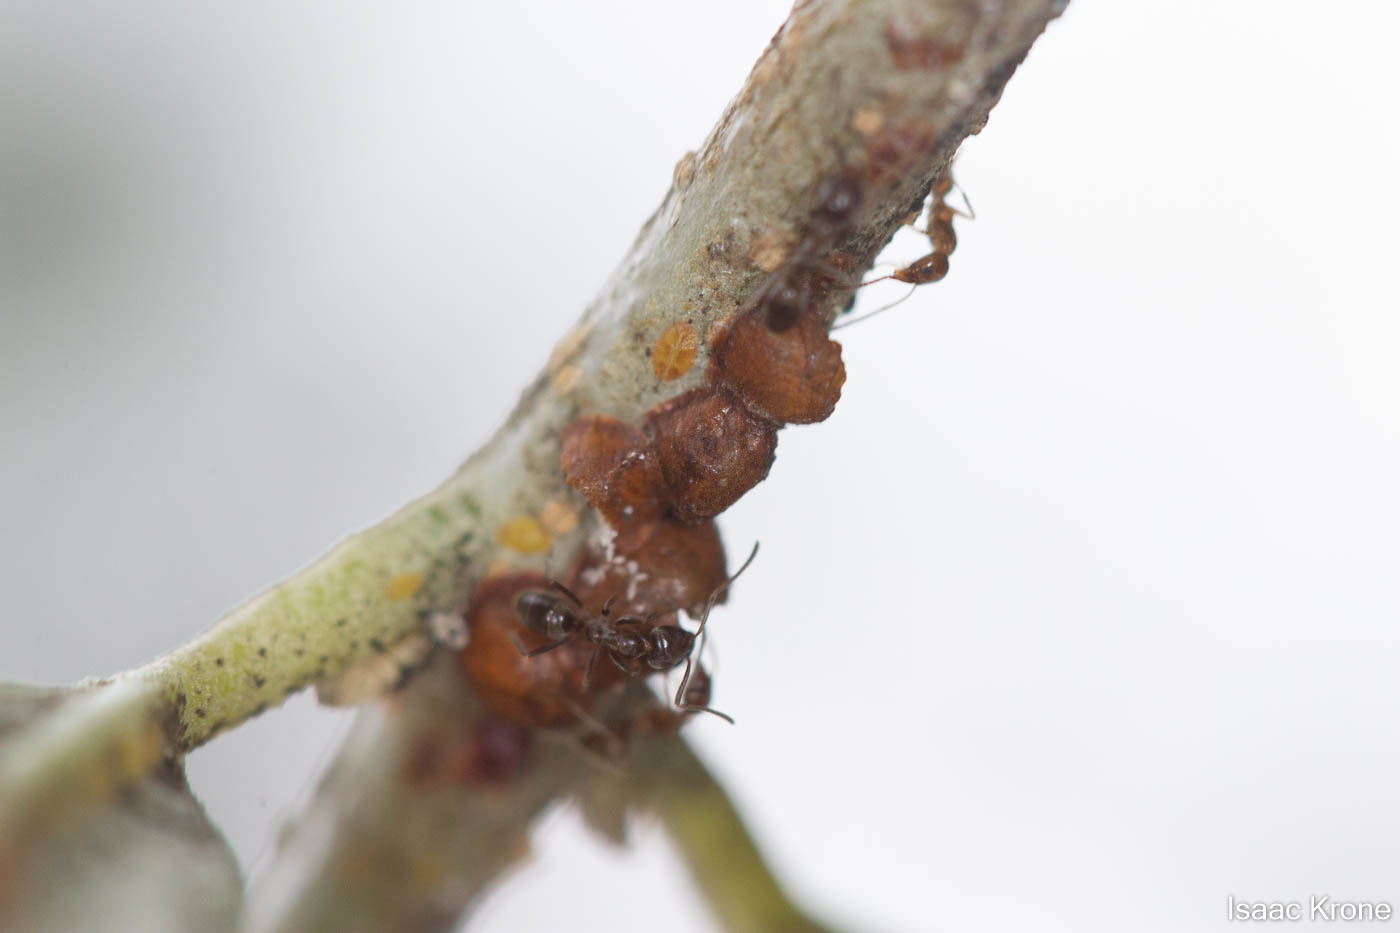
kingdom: Animalia
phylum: Arthropoda
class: Insecta
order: Hymenoptera
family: Formicidae
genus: Linepithema
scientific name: Linepithema humile
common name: Argentine ant
